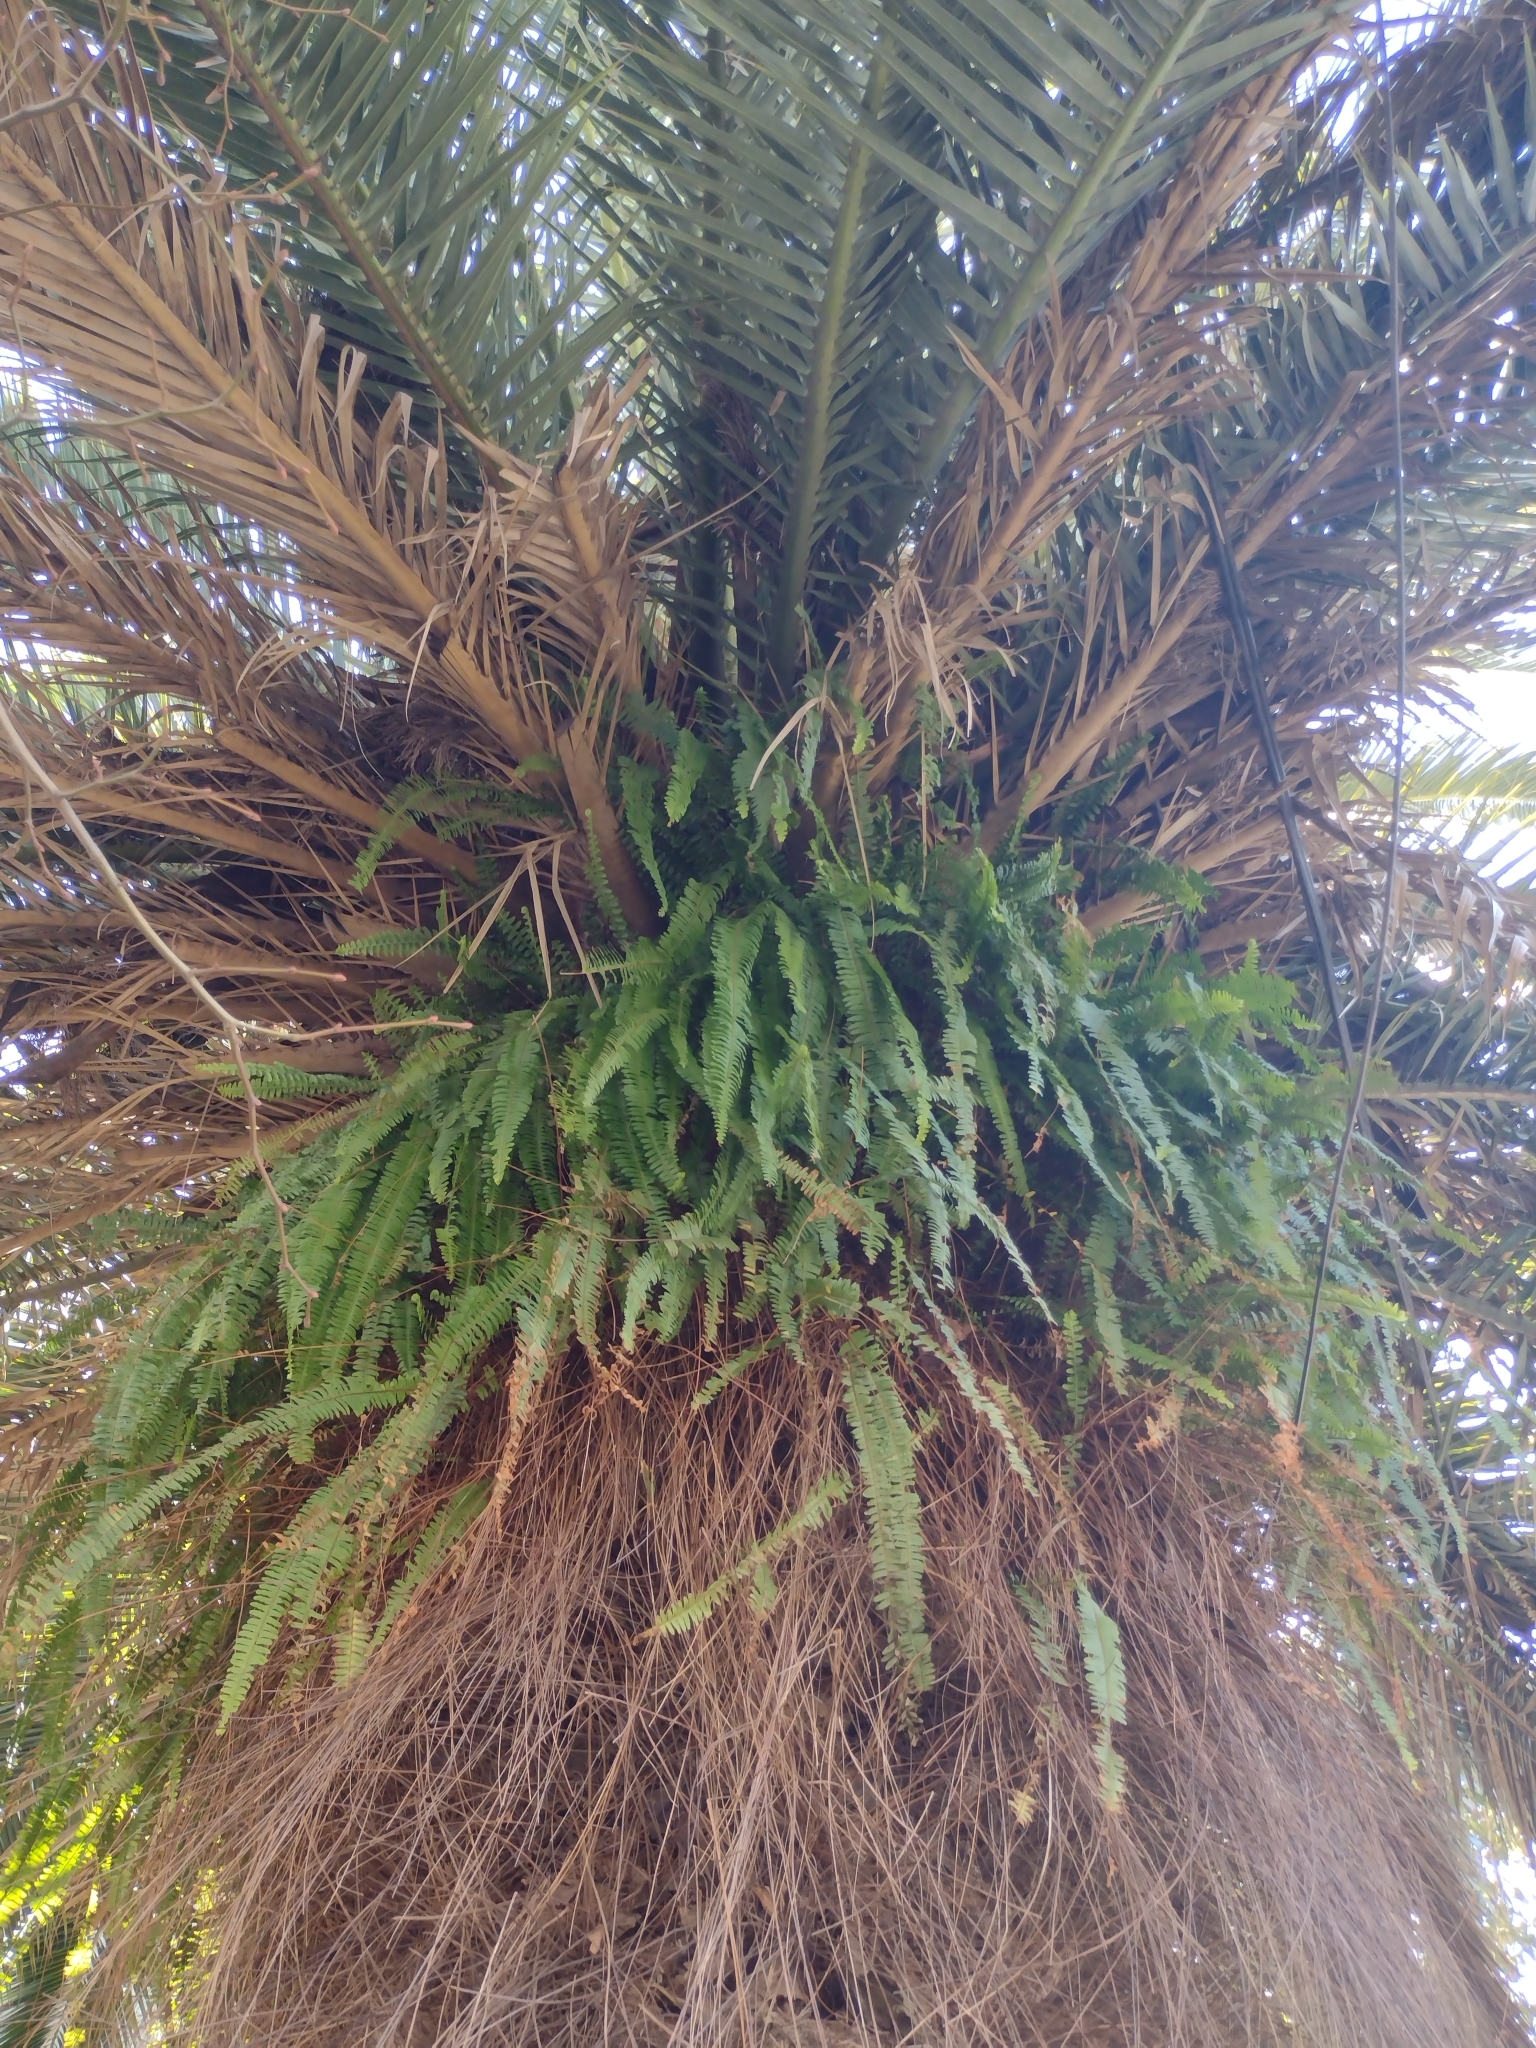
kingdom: Plantae
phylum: Tracheophyta
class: Polypodiopsida
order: Polypodiales
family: Nephrolepidaceae
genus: Nephrolepis
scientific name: Nephrolepis cordifolia
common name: Narrow swordfern
